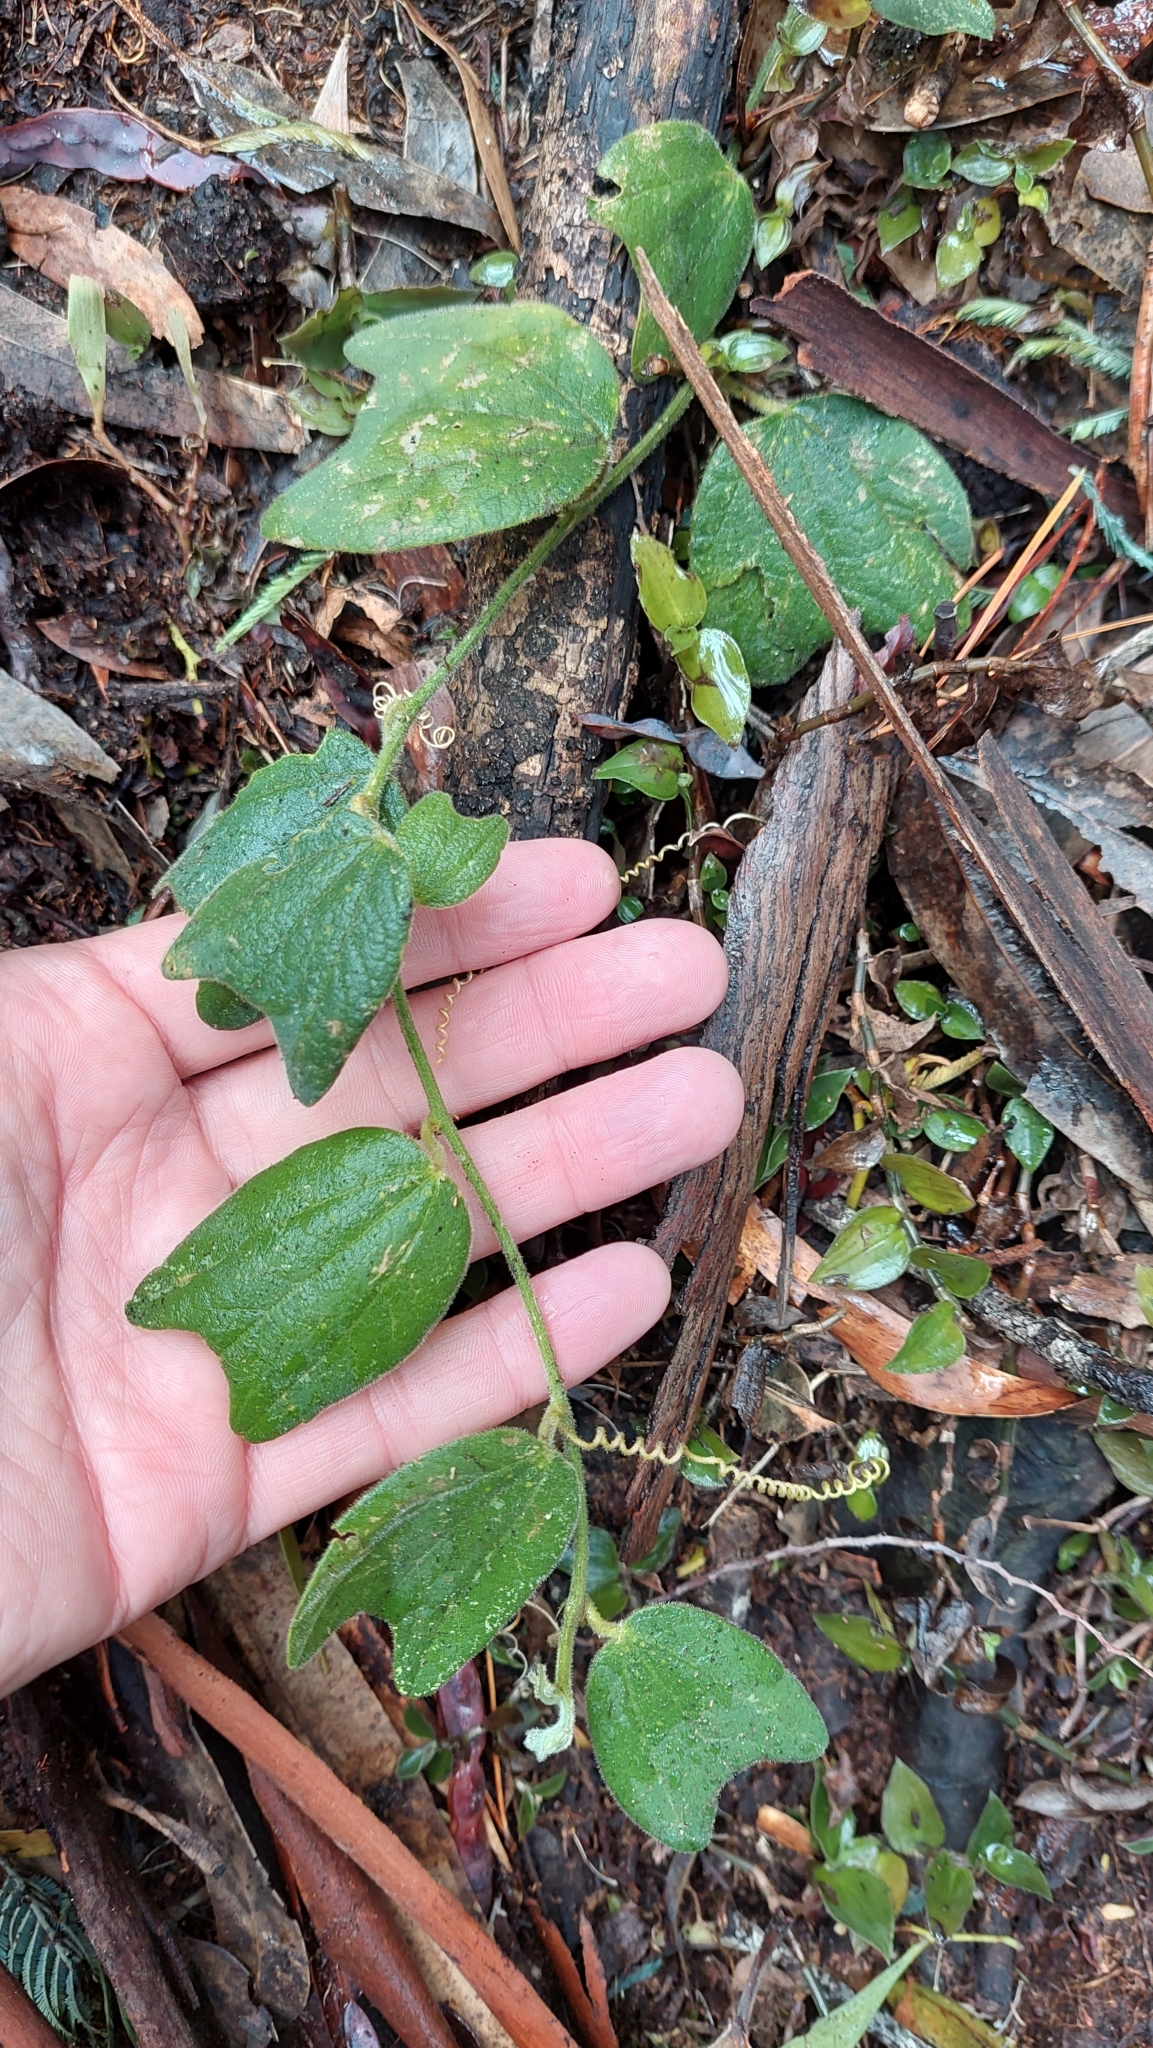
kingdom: Plantae
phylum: Tracheophyta
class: Magnoliopsida
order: Malpighiales
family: Passifloraceae
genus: Passiflora
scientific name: Passiflora bogotensis
